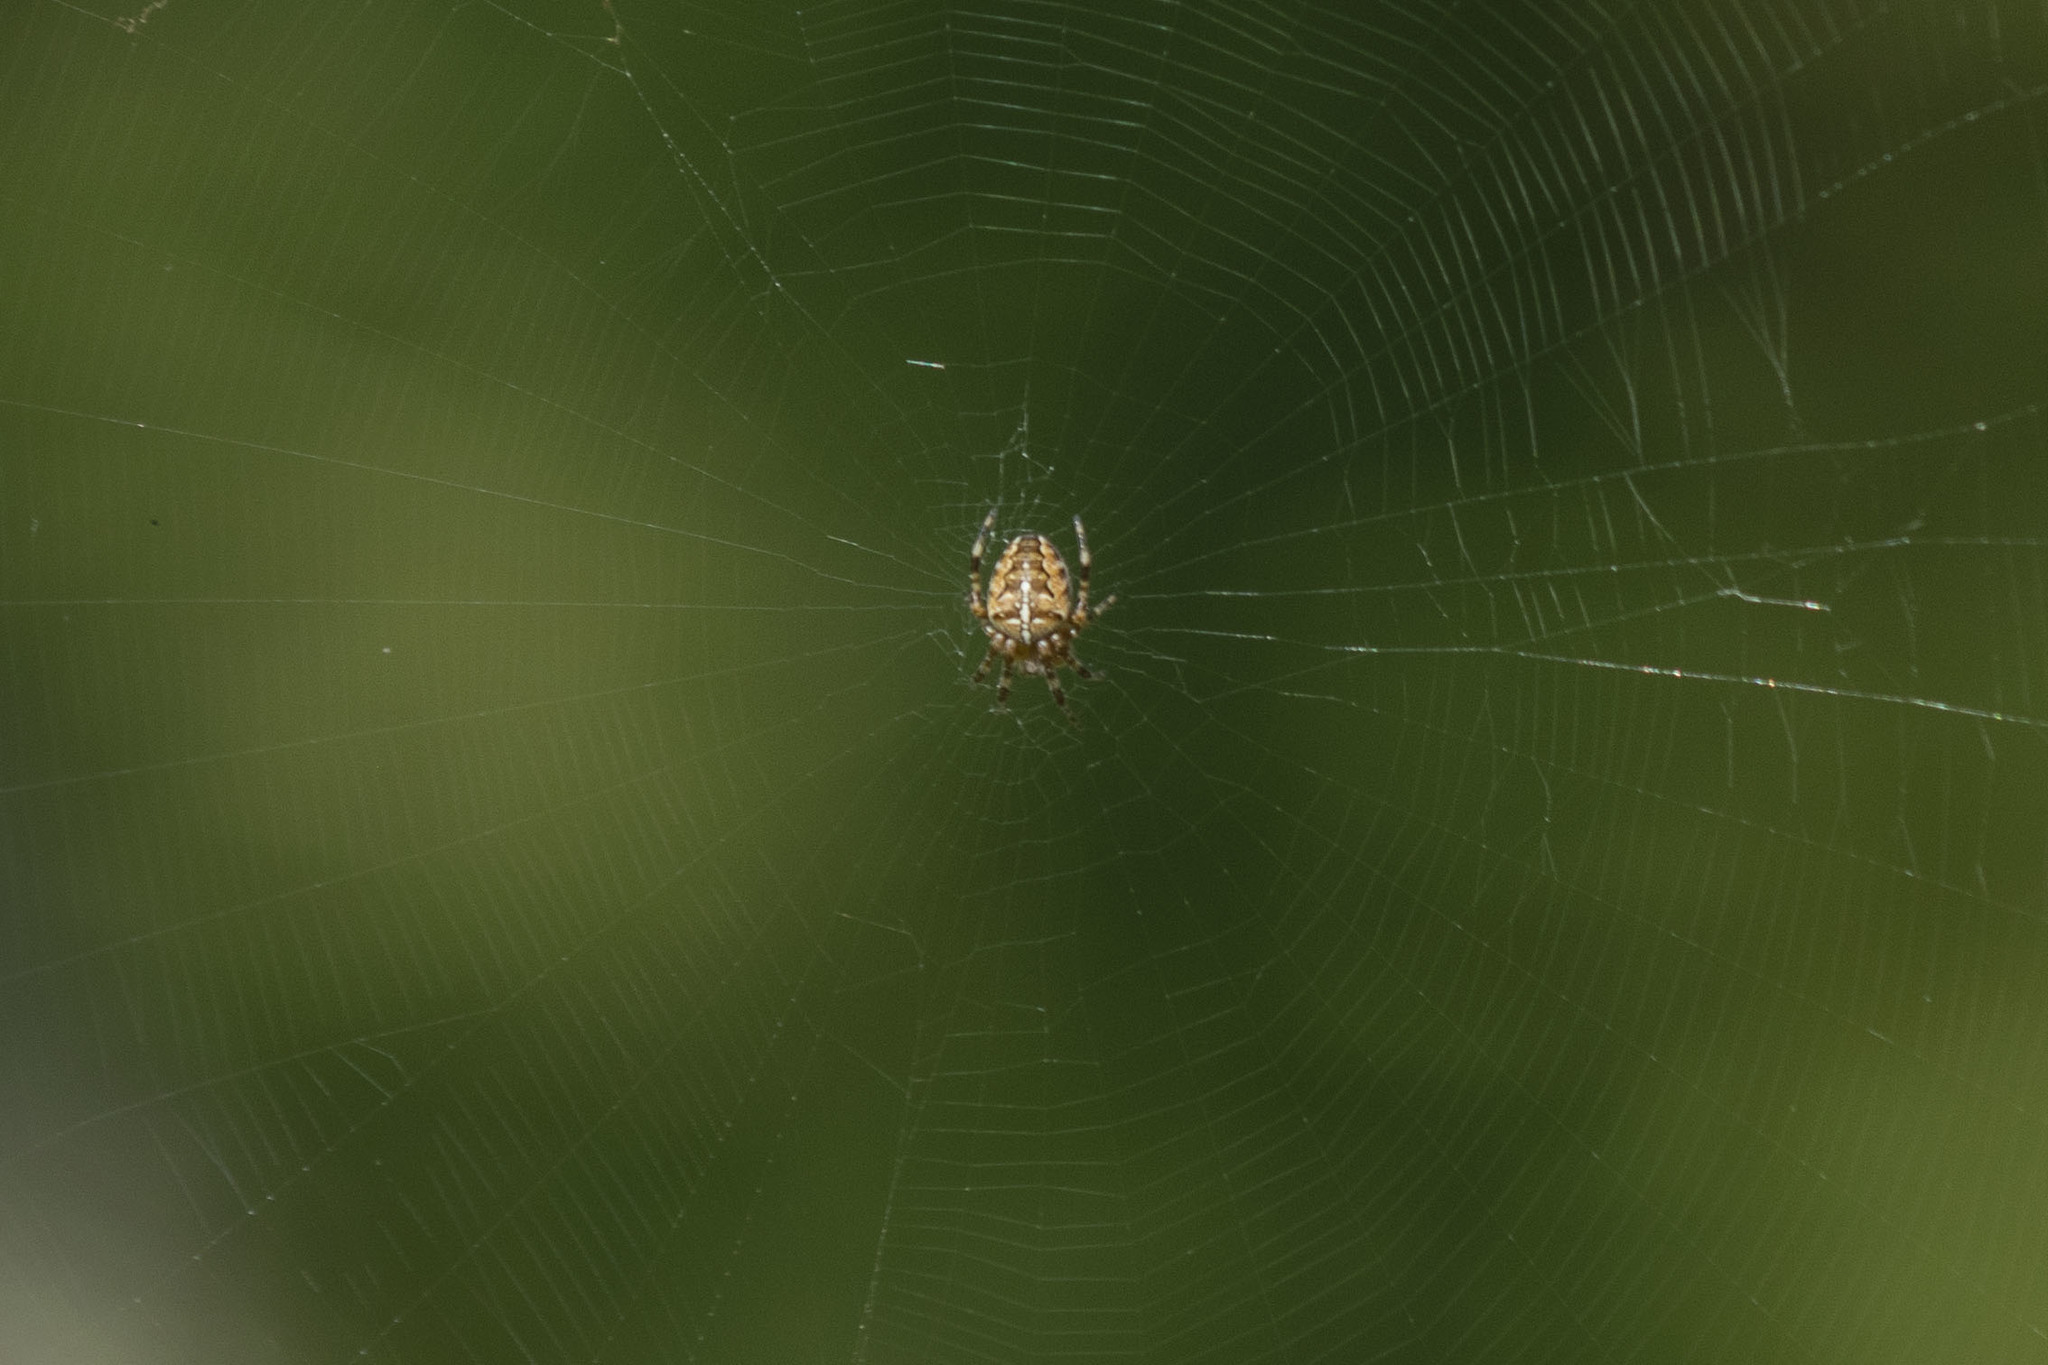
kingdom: Animalia
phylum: Arthropoda
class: Arachnida
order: Araneae
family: Araneidae
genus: Araneus
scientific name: Araneus diadematus
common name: Cross orbweaver
